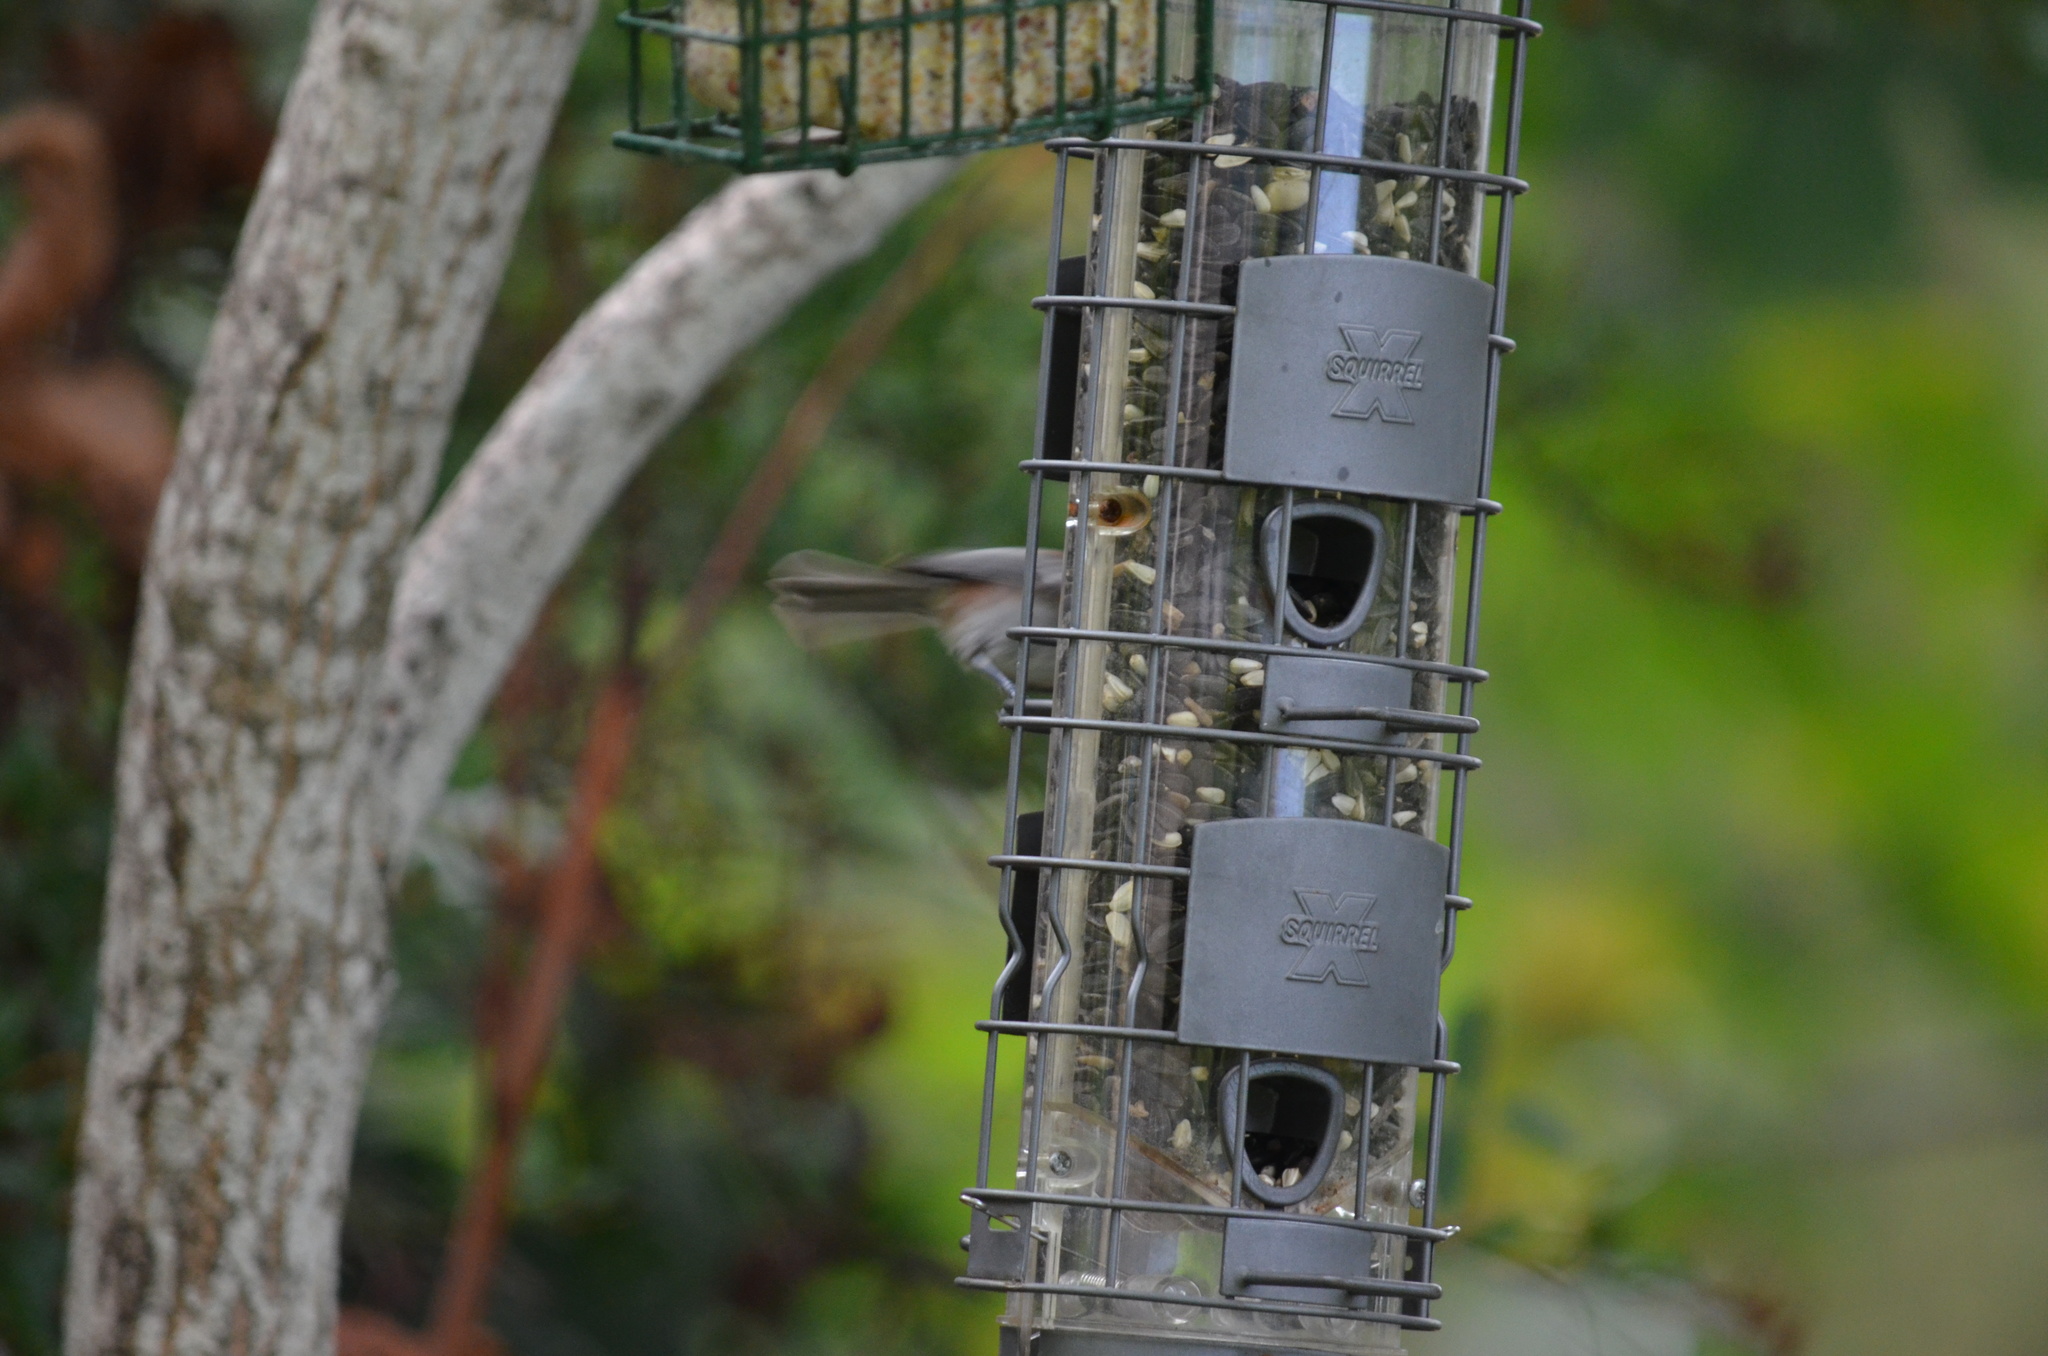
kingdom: Animalia
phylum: Chordata
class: Aves
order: Passeriformes
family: Paridae
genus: Poecile
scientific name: Poecile rufescens
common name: Chestnut-backed chickadee
